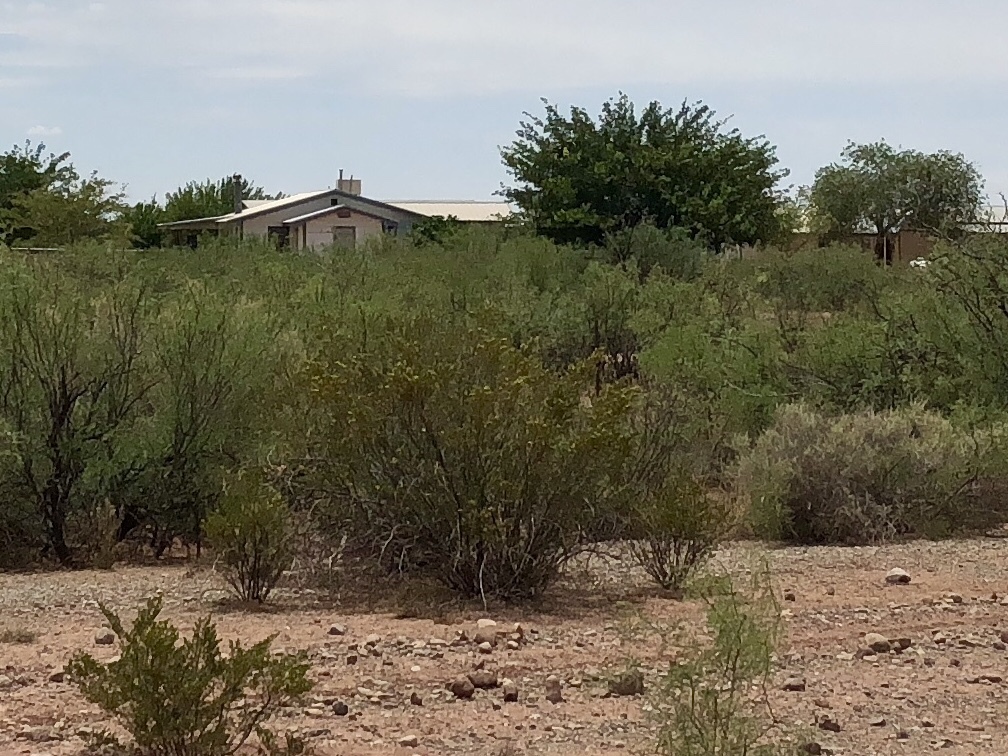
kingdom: Plantae
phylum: Tracheophyta
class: Magnoliopsida
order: Zygophyllales
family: Zygophyllaceae
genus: Larrea
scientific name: Larrea tridentata
